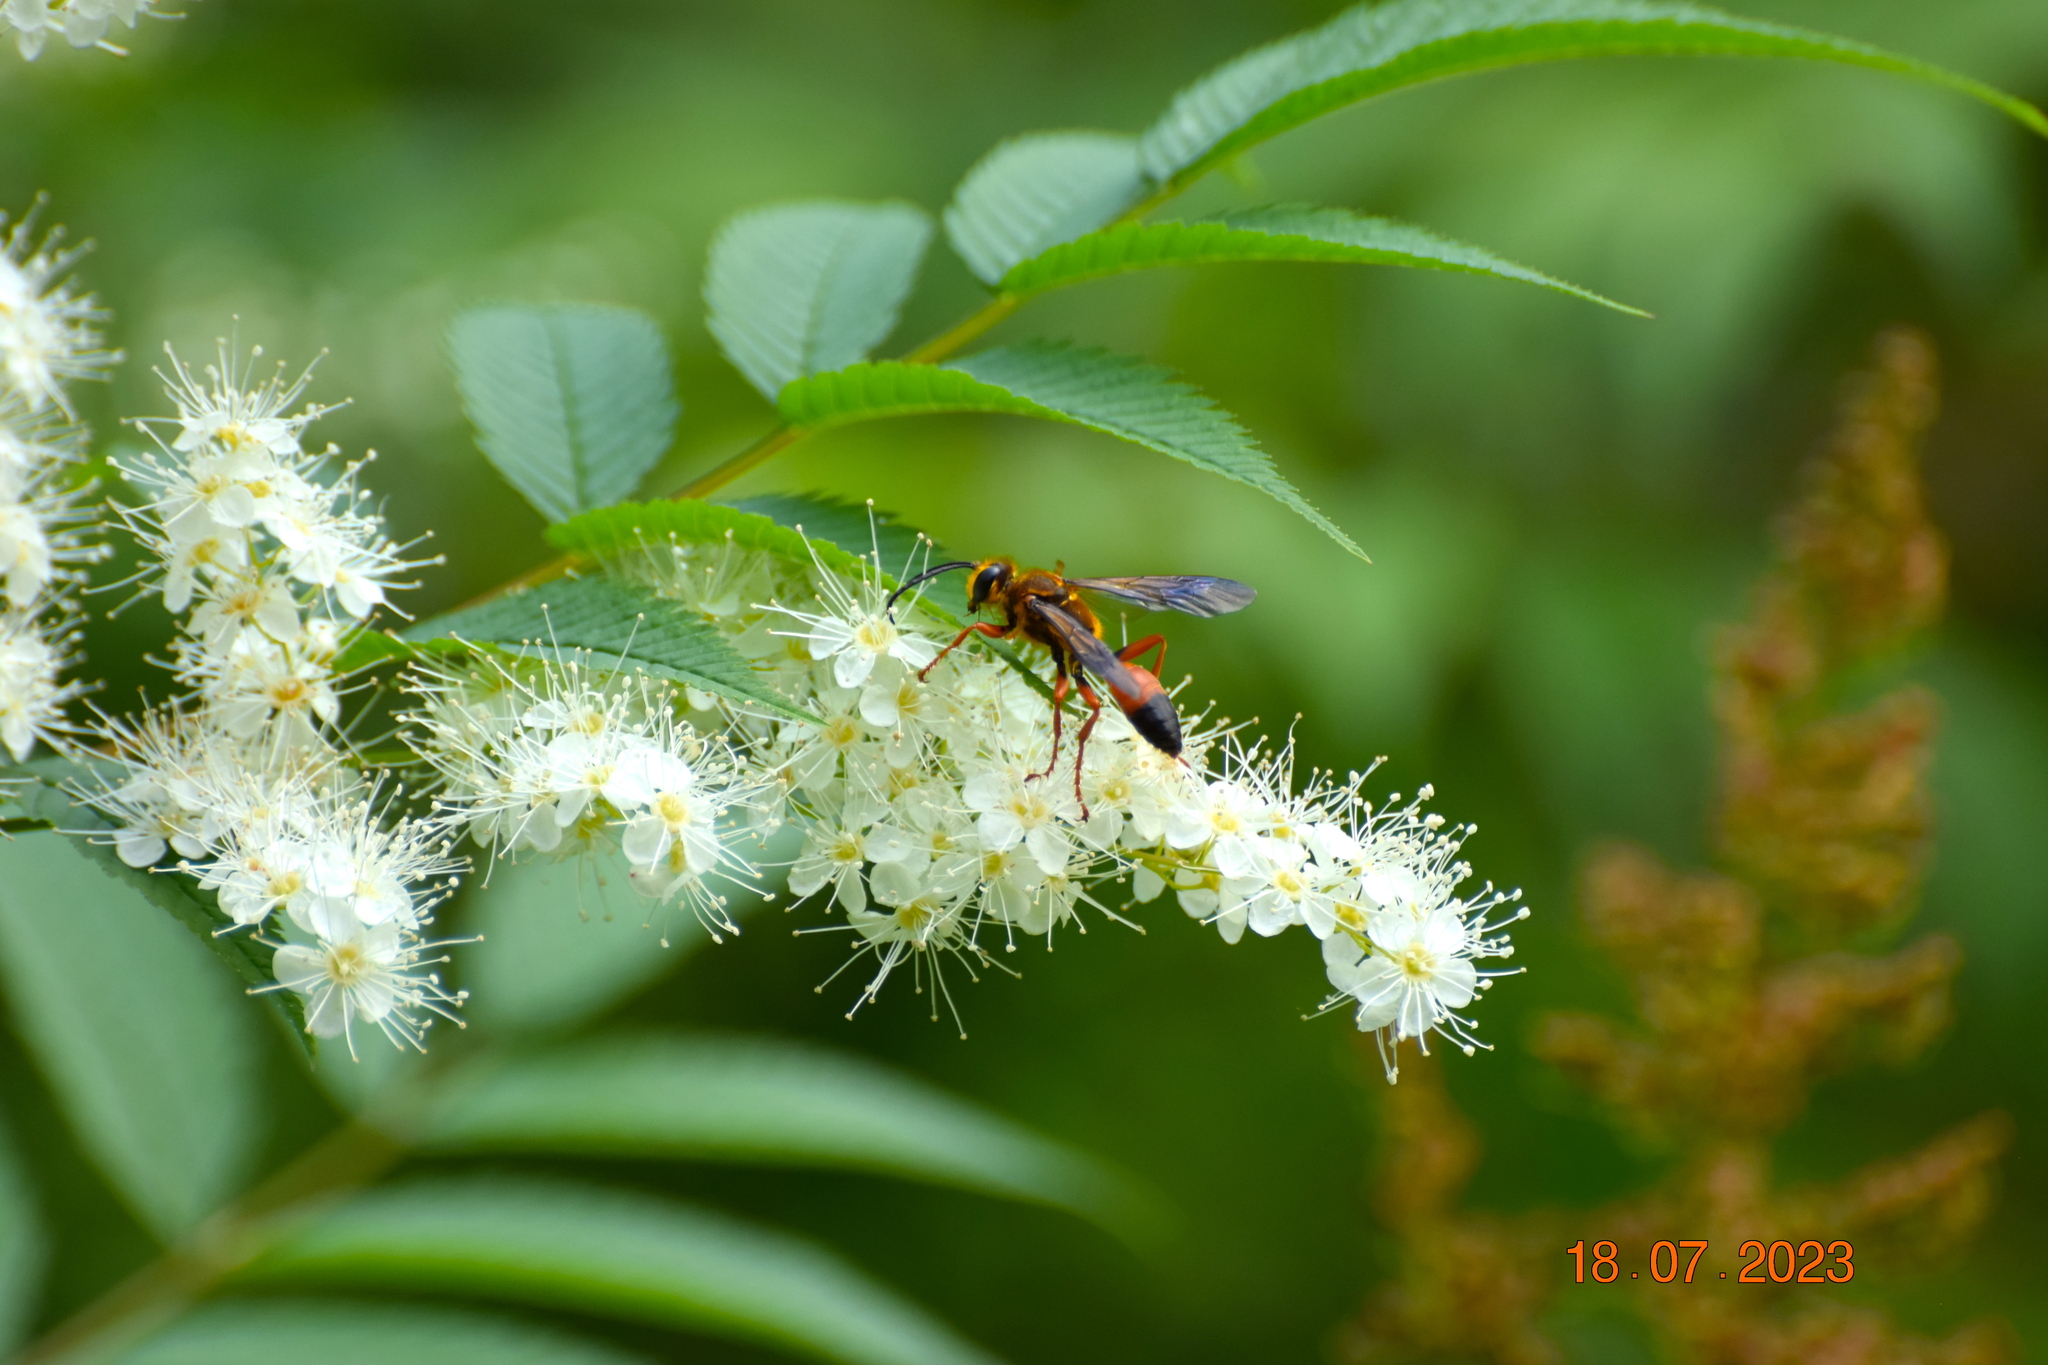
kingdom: Animalia
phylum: Arthropoda
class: Insecta
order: Hymenoptera
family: Sphecidae
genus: Sphex
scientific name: Sphex ichneumoneus
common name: Great golden digger wasp
